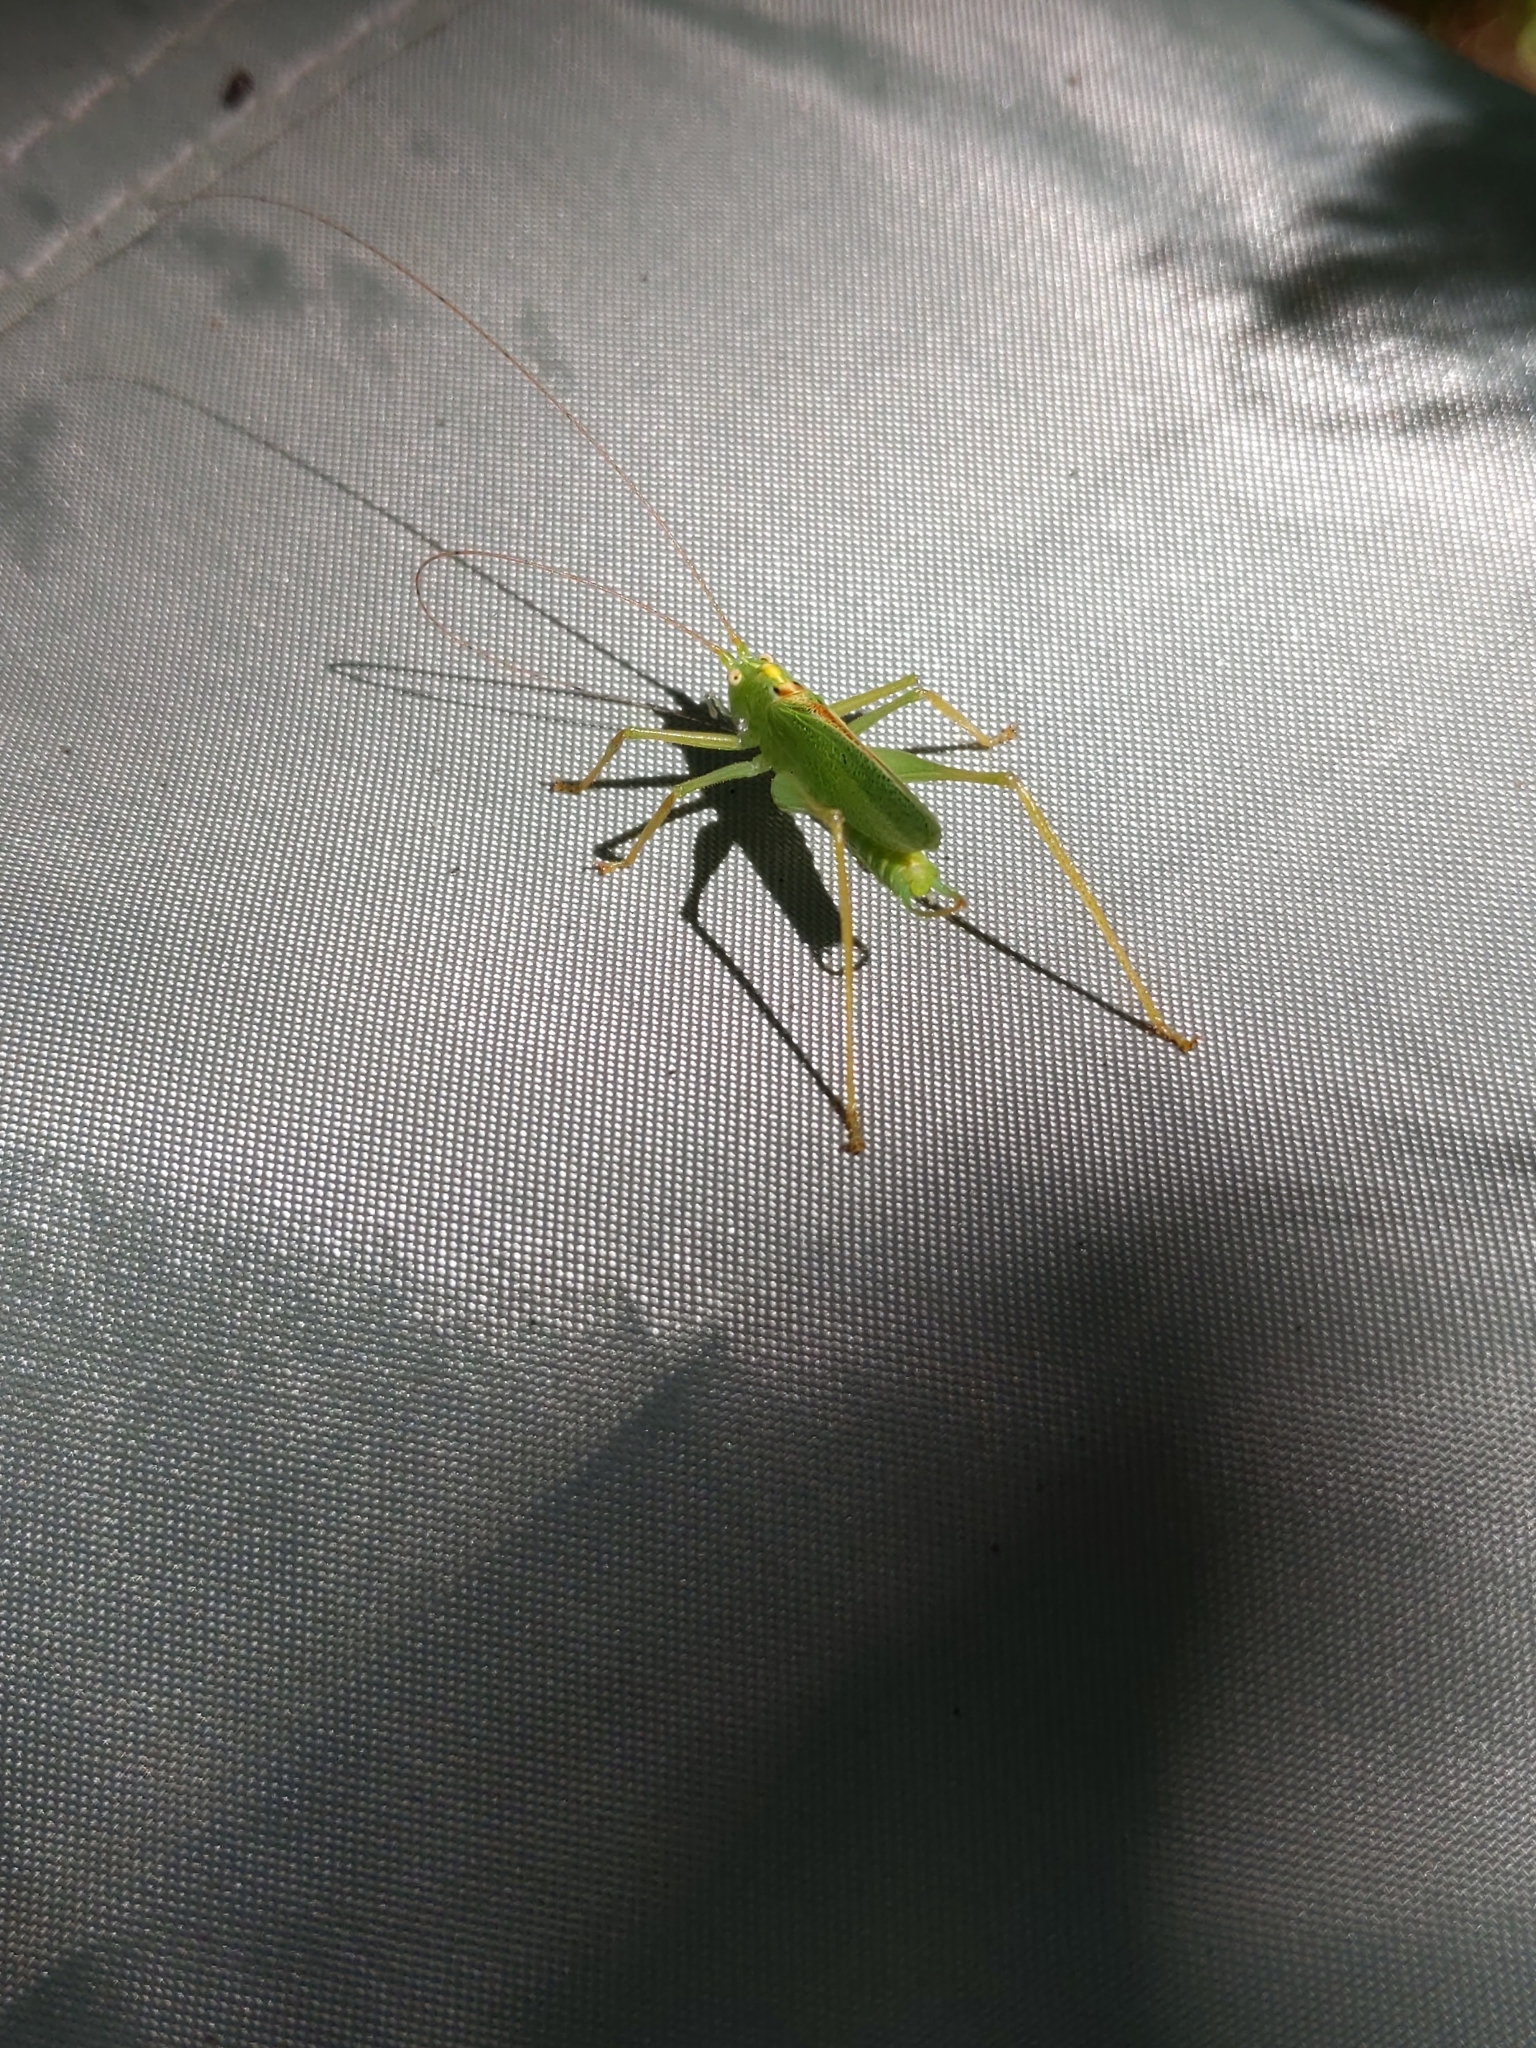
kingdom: Animalia
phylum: Arthropoda
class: Insecta
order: Orthoptera
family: Tettigoniidae
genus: Meconema
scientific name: Meconema thalassinum
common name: Oak bush-cricket
